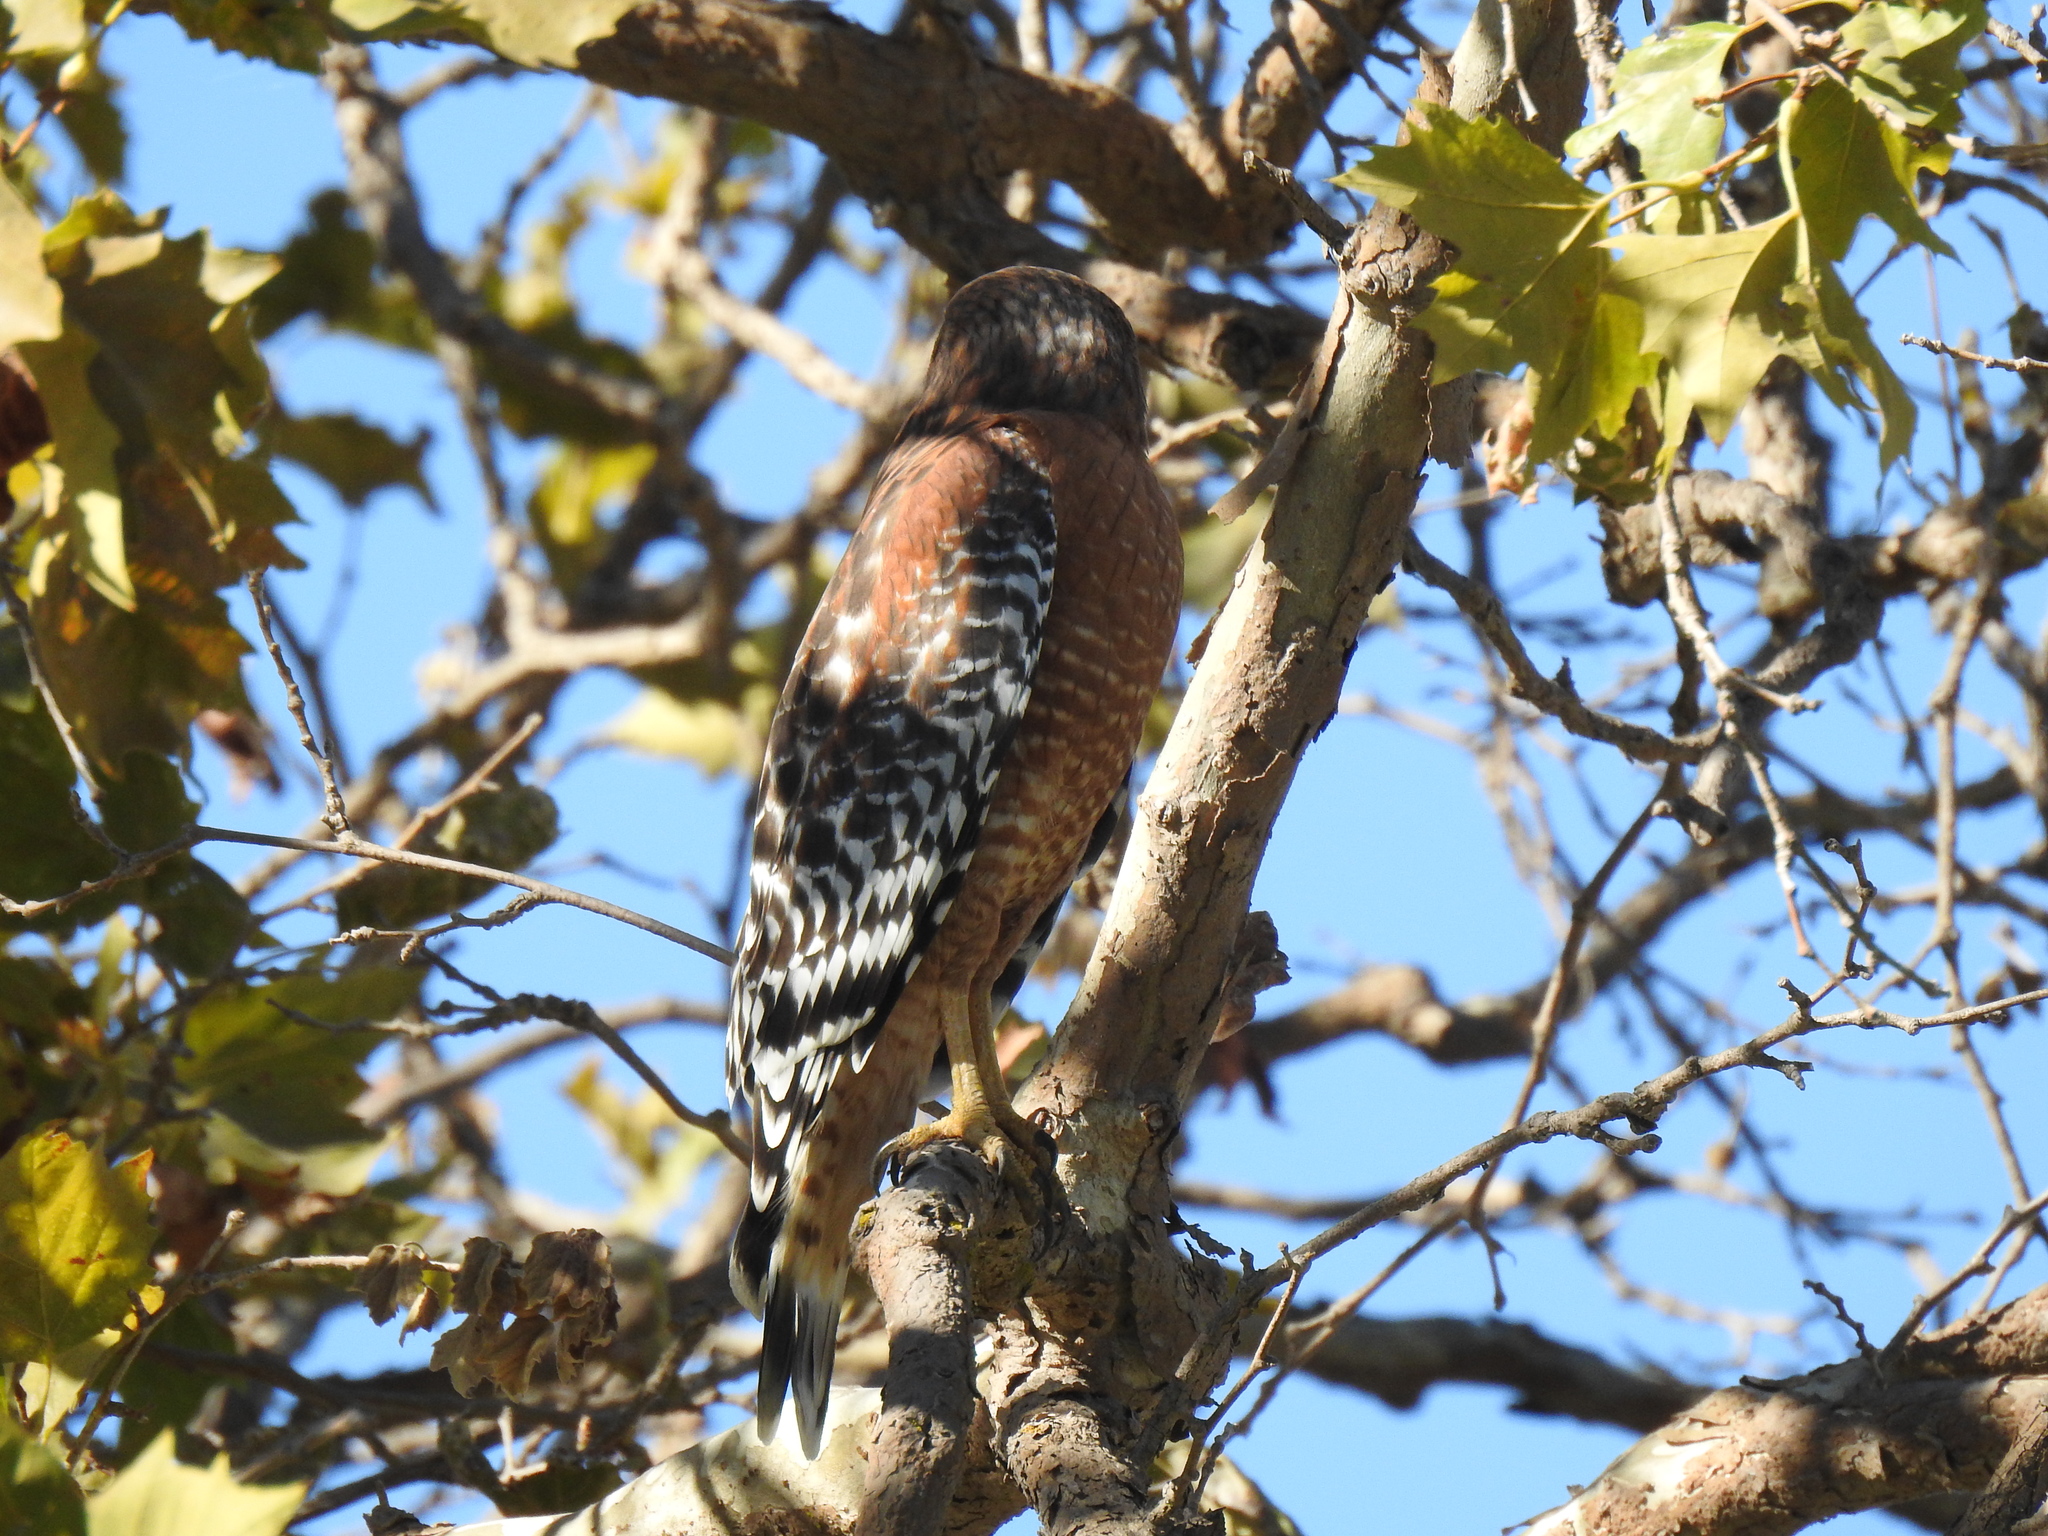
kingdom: Animalia
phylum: Chordata
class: Aves
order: Accipitriformes
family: Accipitridae
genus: Buteo
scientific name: Buteo lineatus
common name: Red-shouldered hawk
